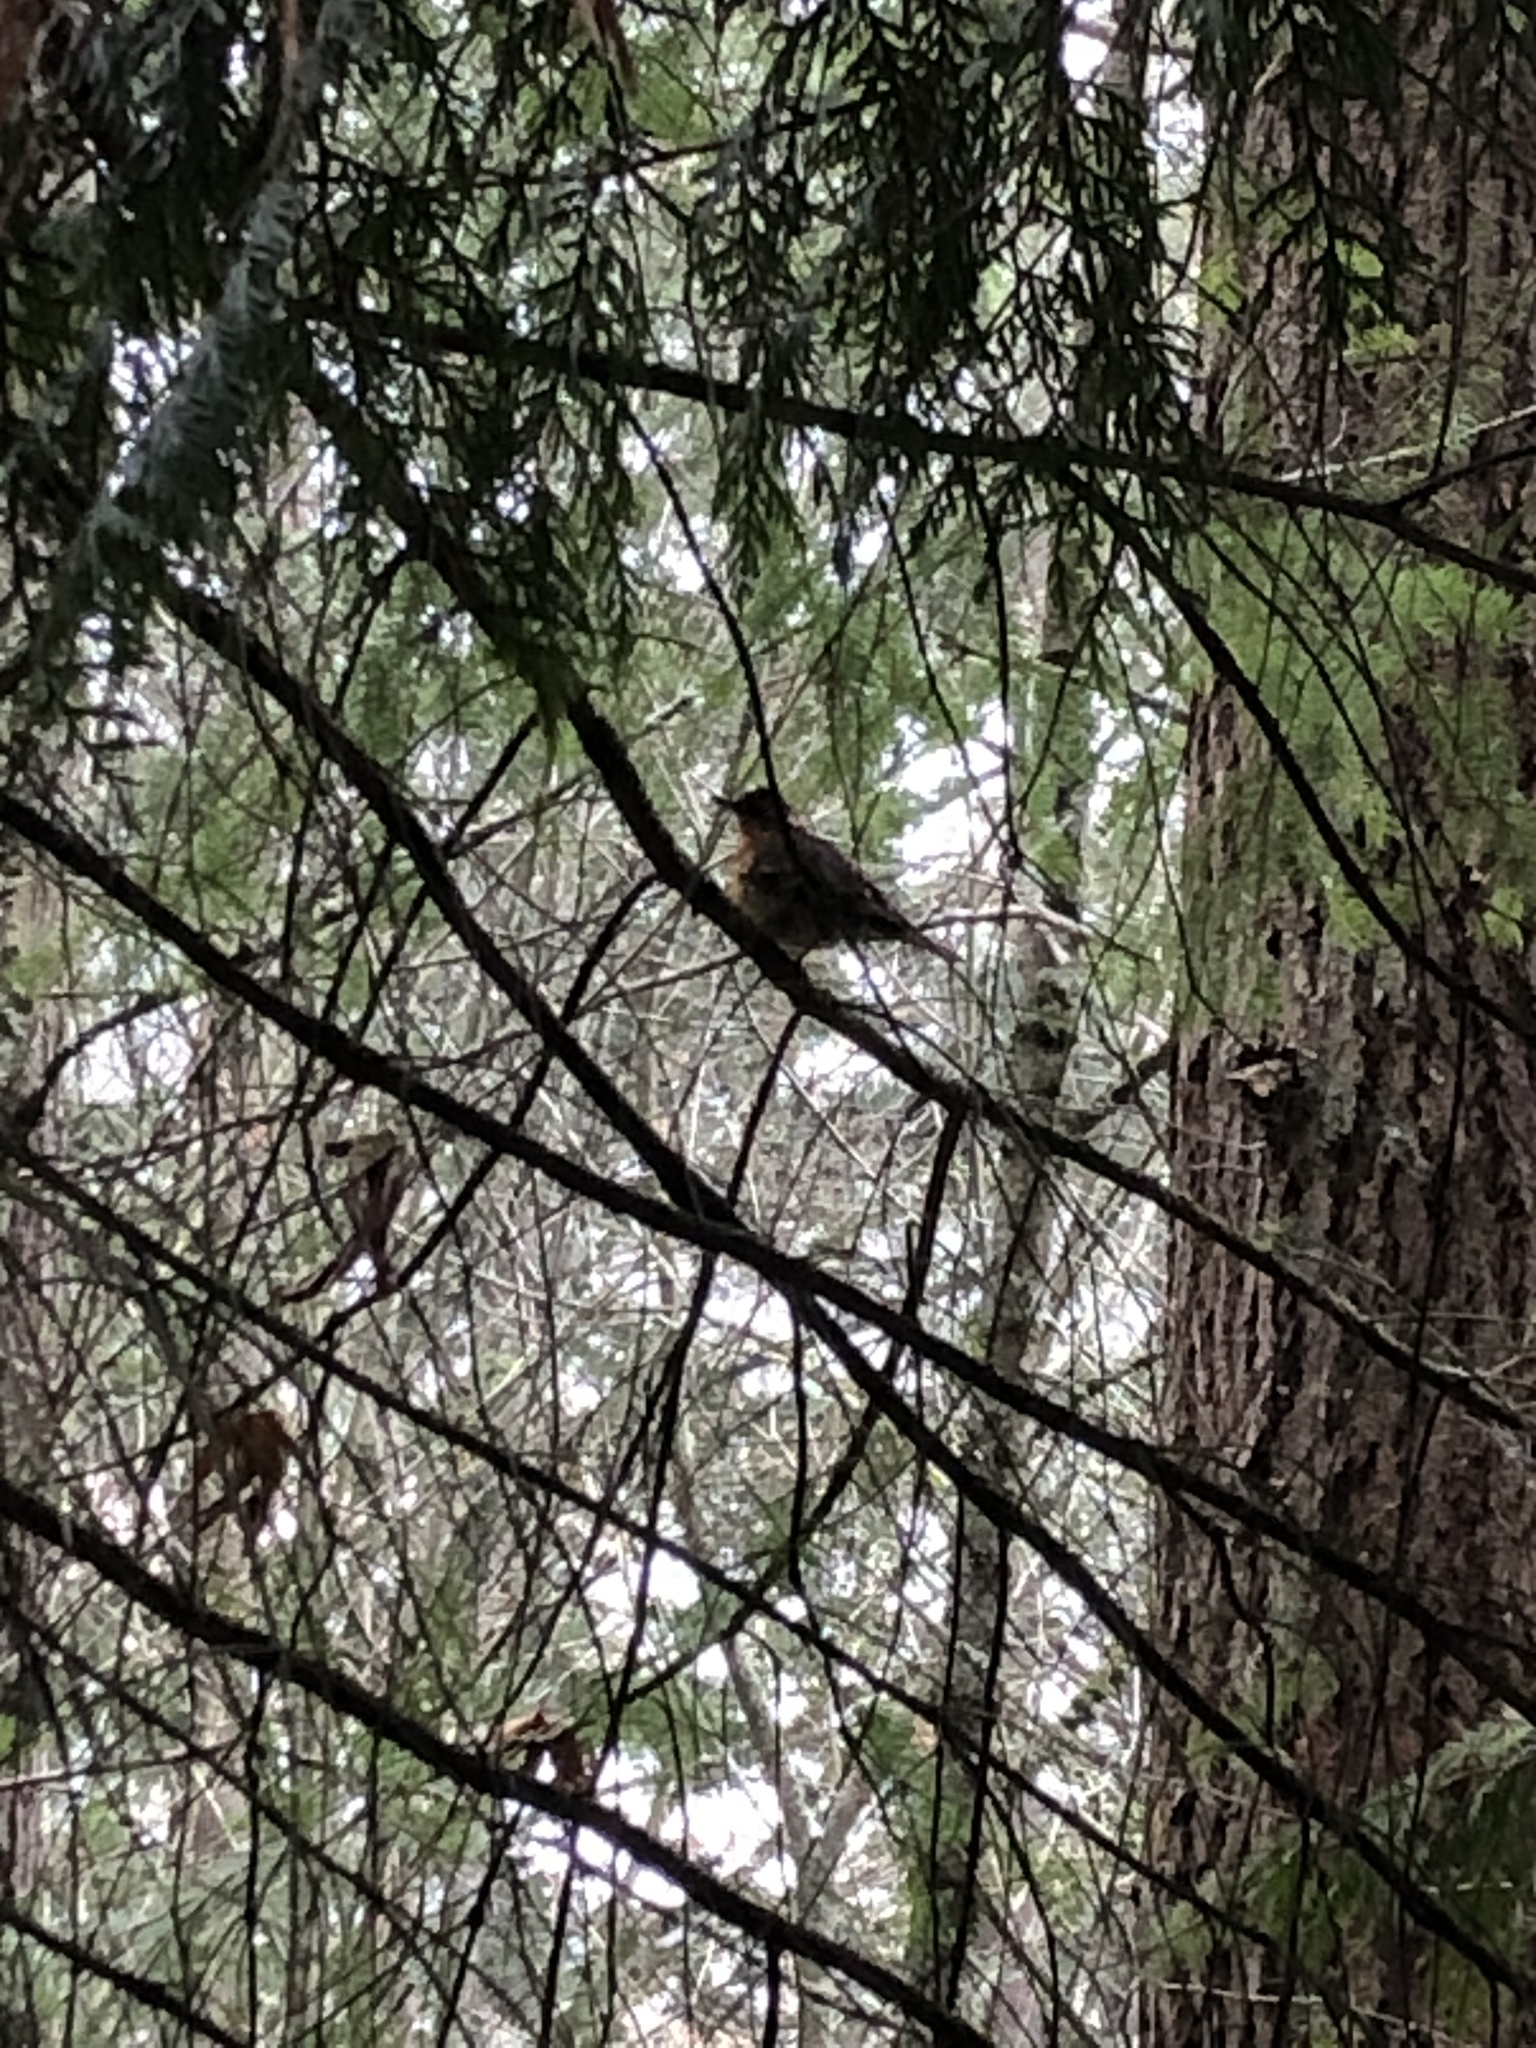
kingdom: Animalia
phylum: Chordata
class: Aves
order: Passeriformes
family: Turdidae
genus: Ixoreus
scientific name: Ixoreus naevius
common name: Varied thrush
